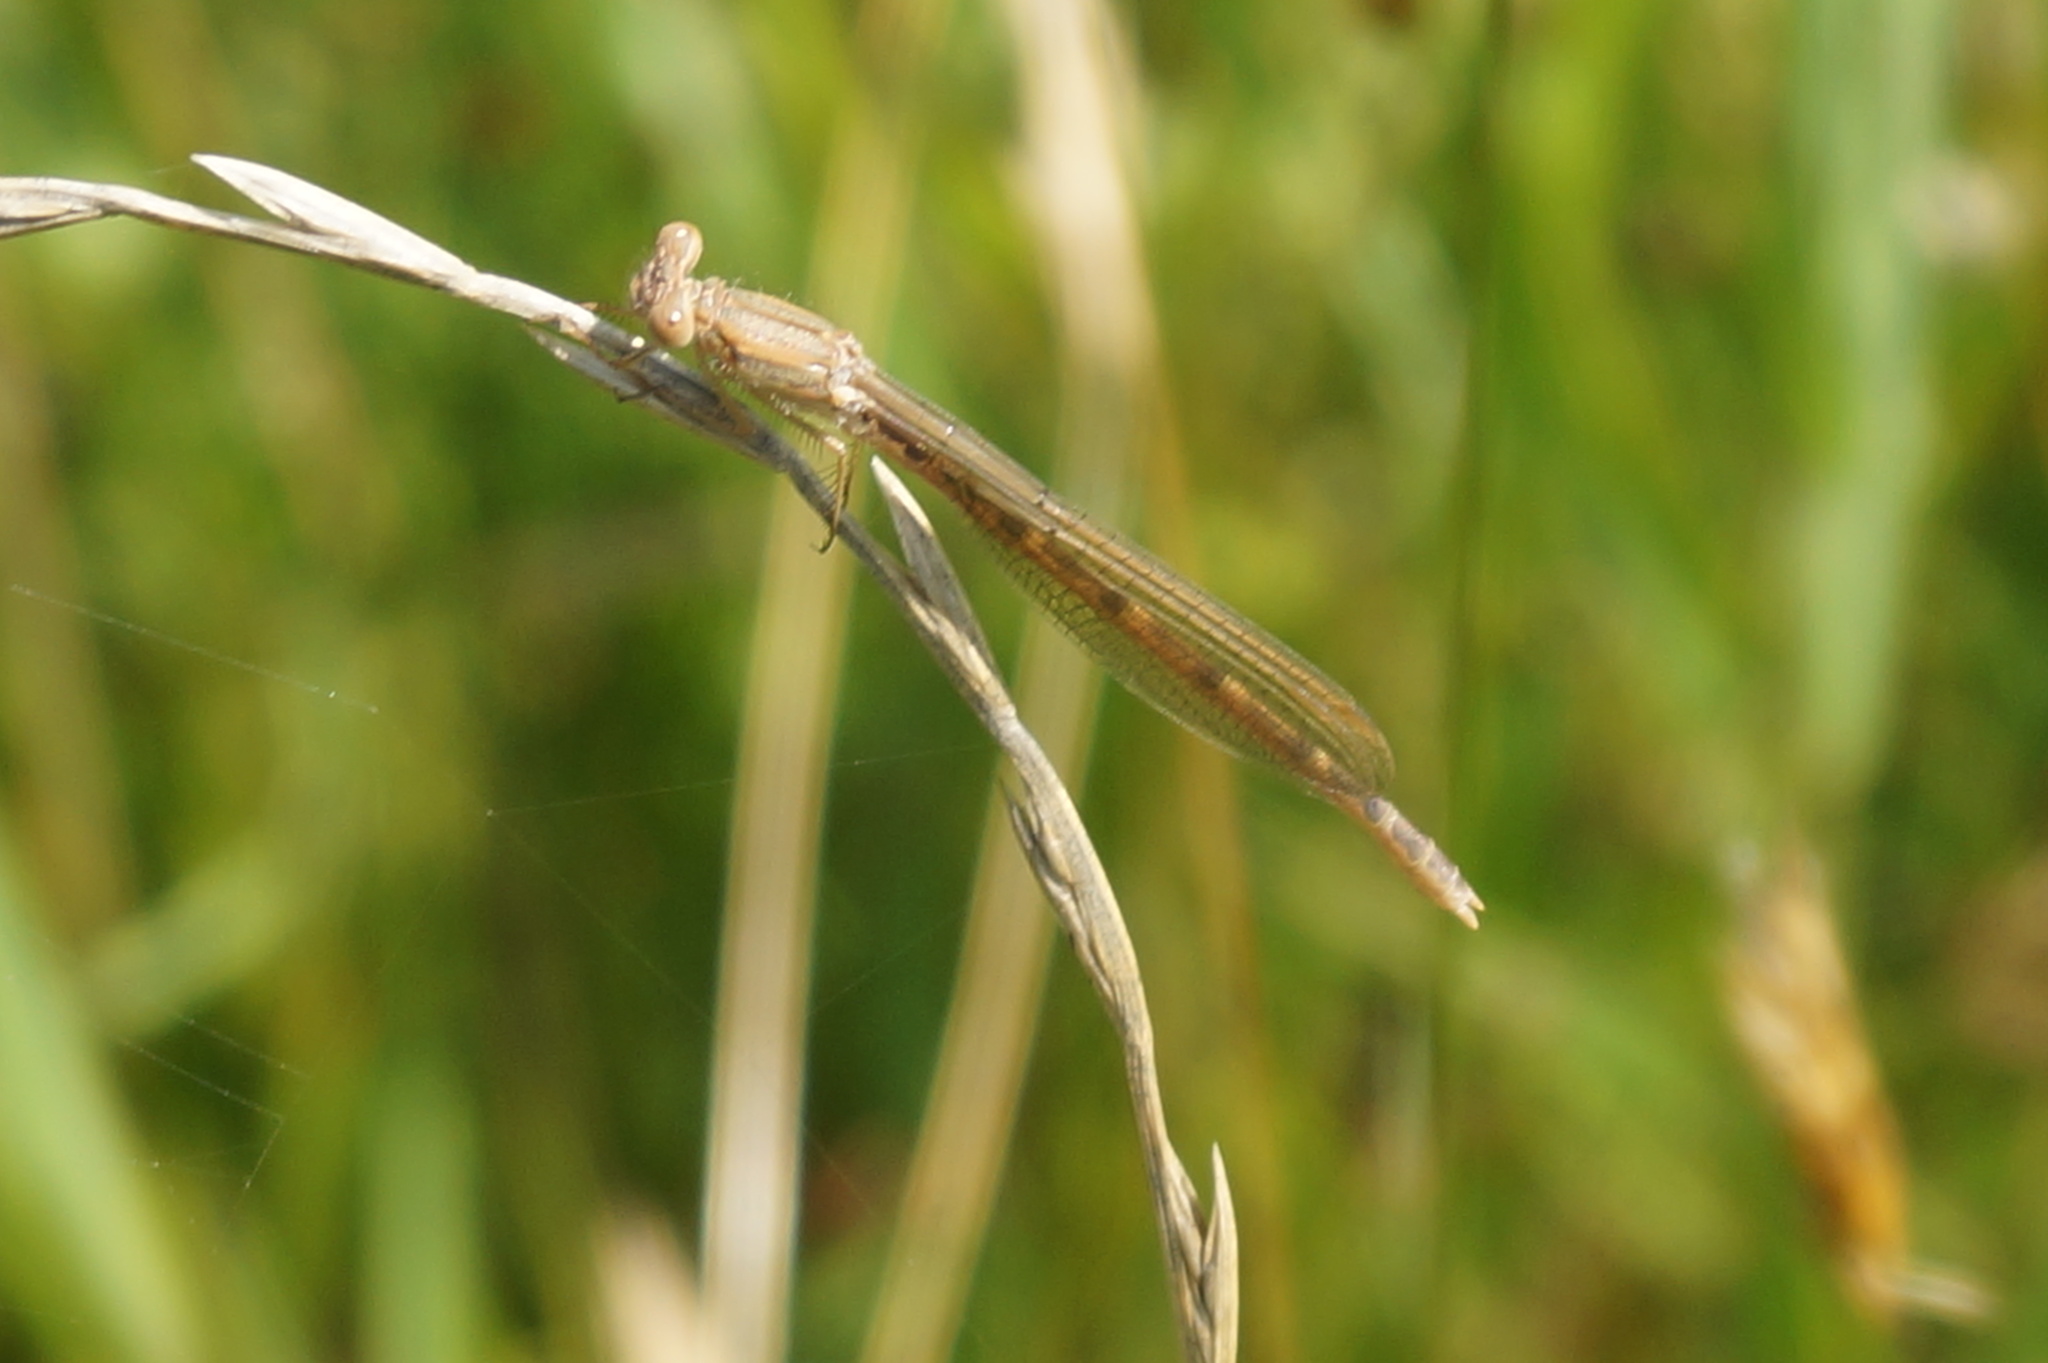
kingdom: Animalia
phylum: Arthropoda
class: Insecta
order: Odonata
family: Lestidae
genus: Sympecma
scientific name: Sympecma fusca
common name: Common winter damsel
